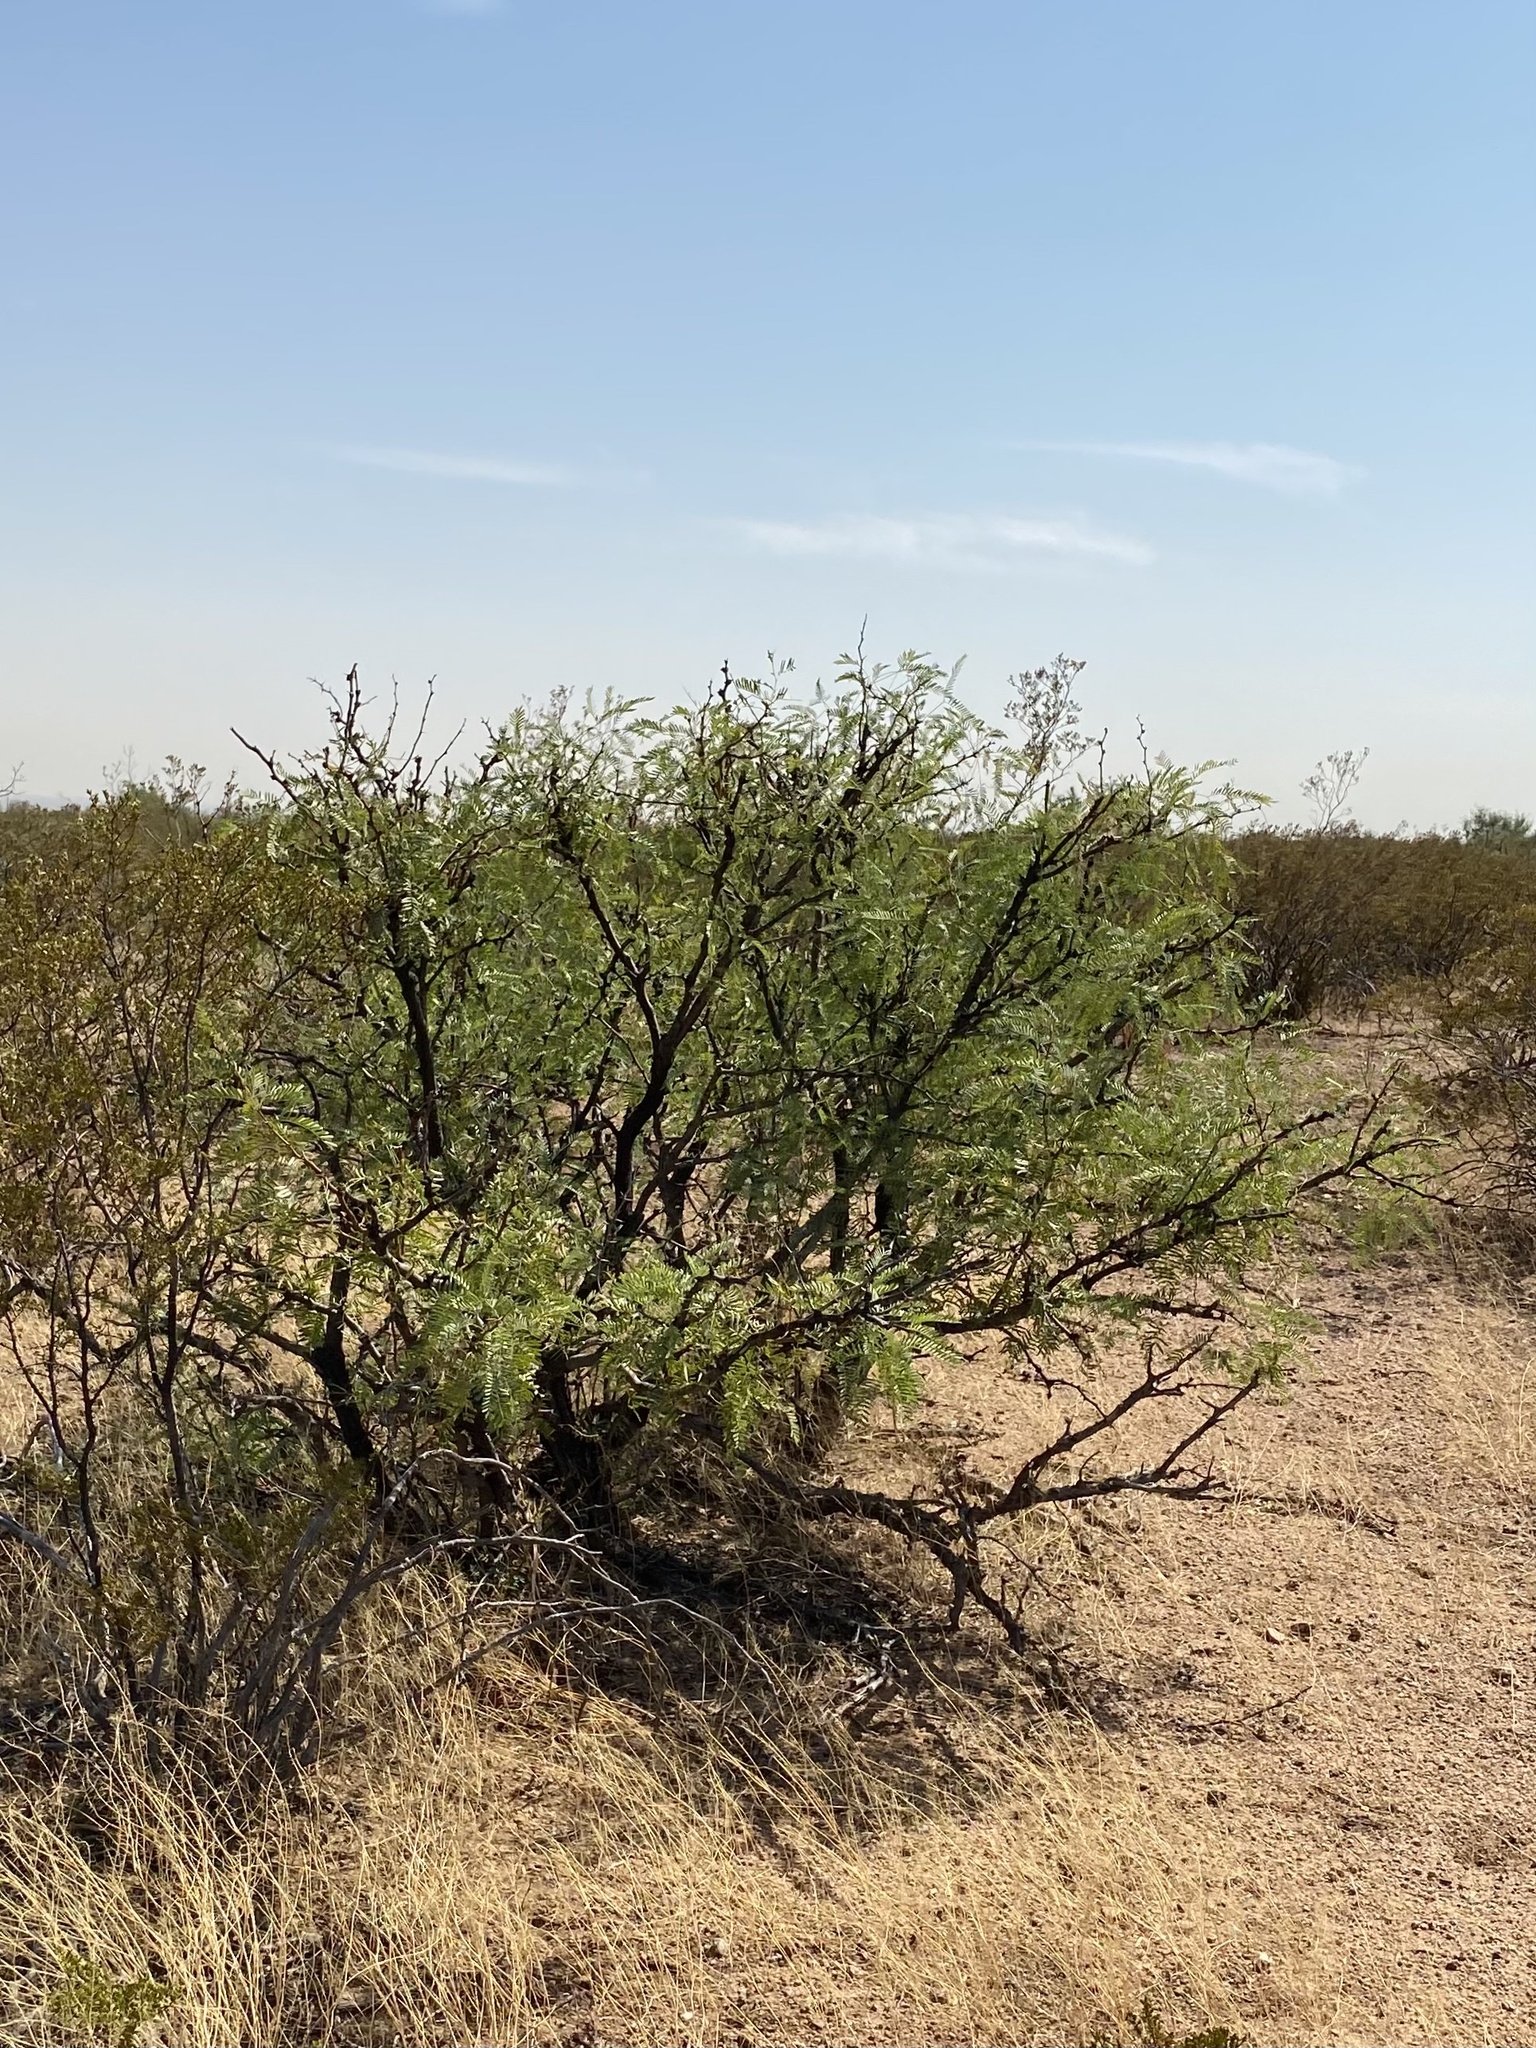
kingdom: Plantae
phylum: Tracheophyta
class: Magnoliopsida
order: Fabales
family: Fabaceae
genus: Prosopis
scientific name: Prosopis glandulosa
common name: Honey mesquite
